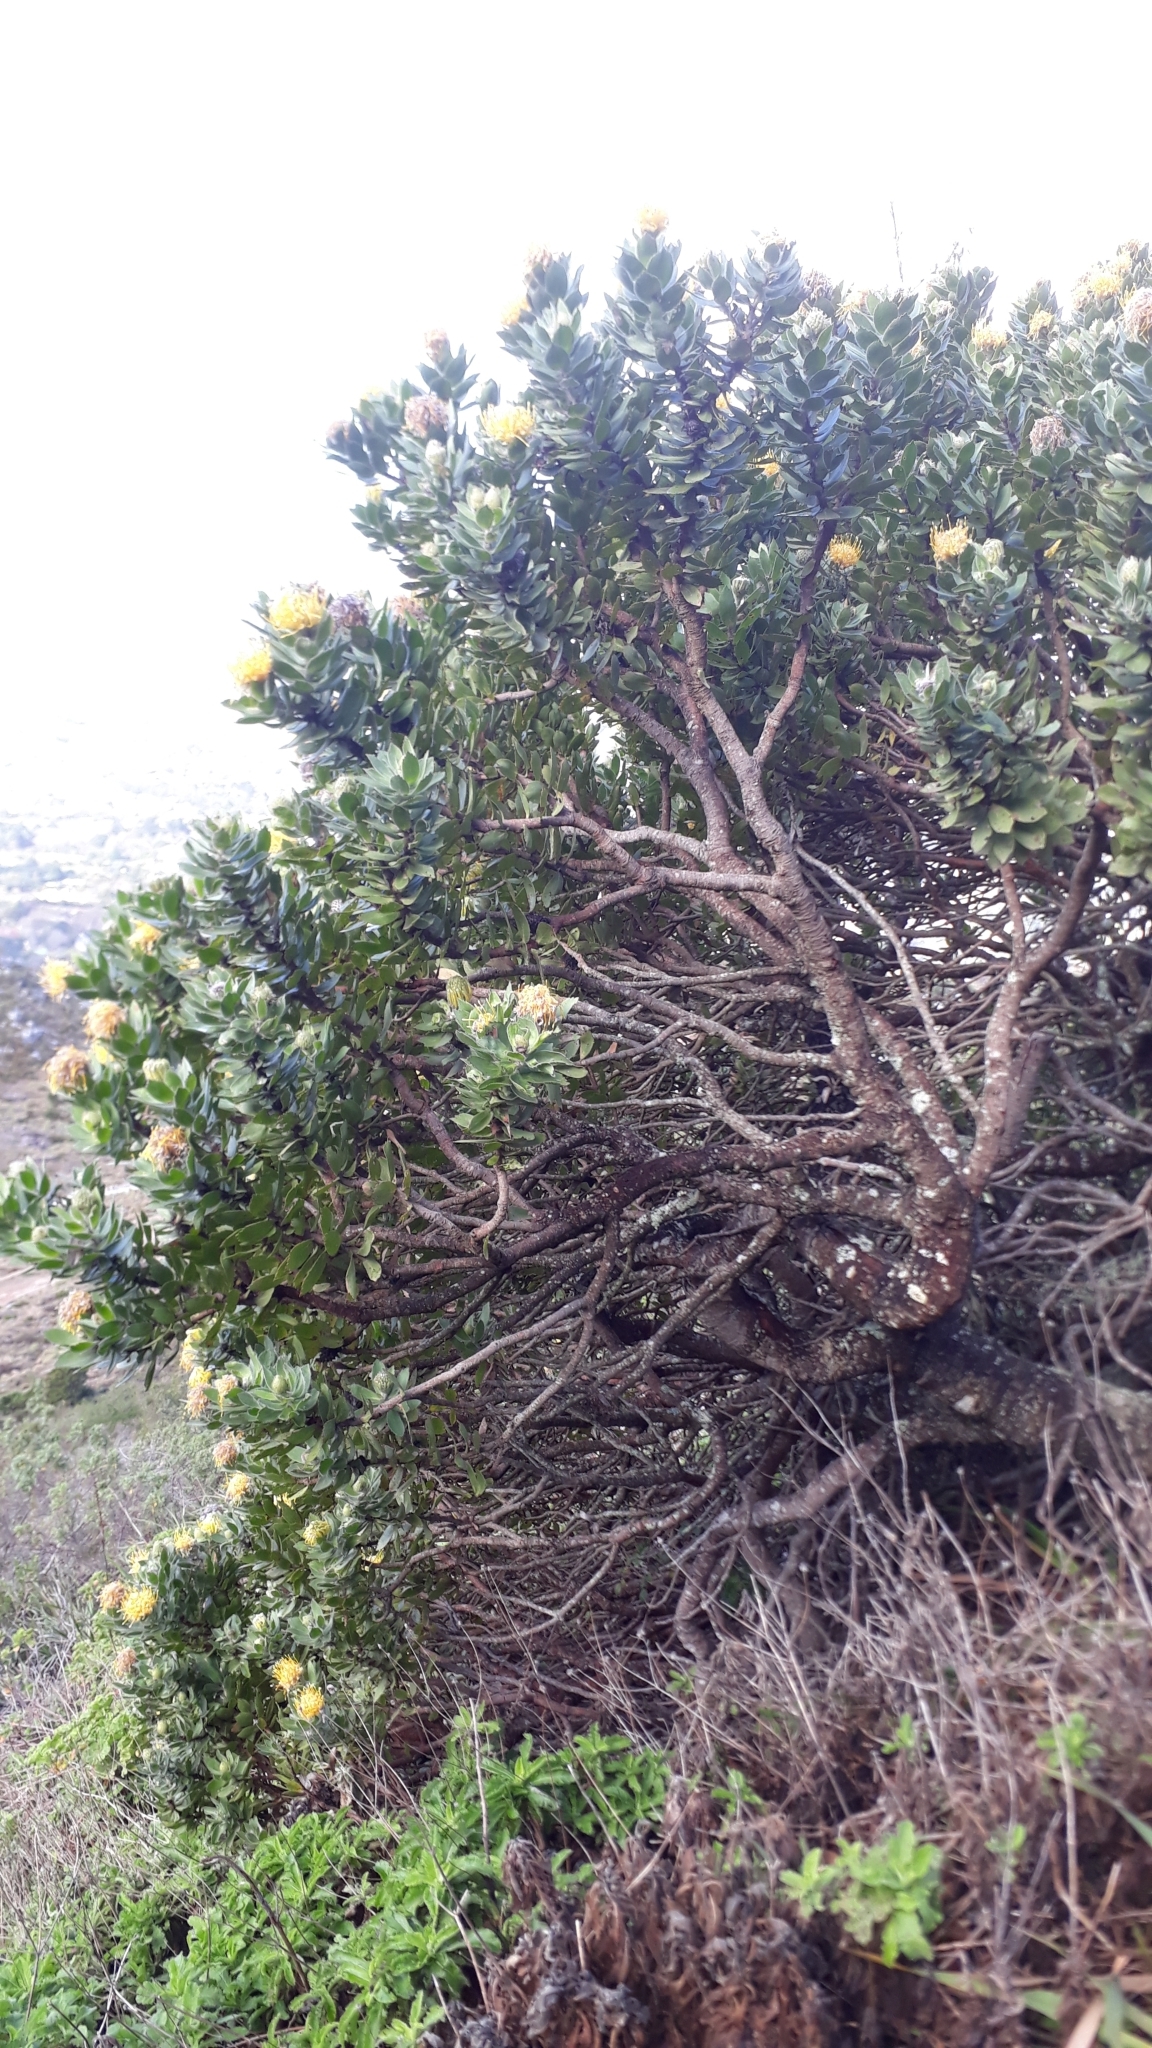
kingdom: Plantae
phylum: Tracheophyta
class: Magnoliopsida
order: Proteales
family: Proteaceae
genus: Leucospermum
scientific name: Leucospermum conocarpodendron
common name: Tree pincushion
